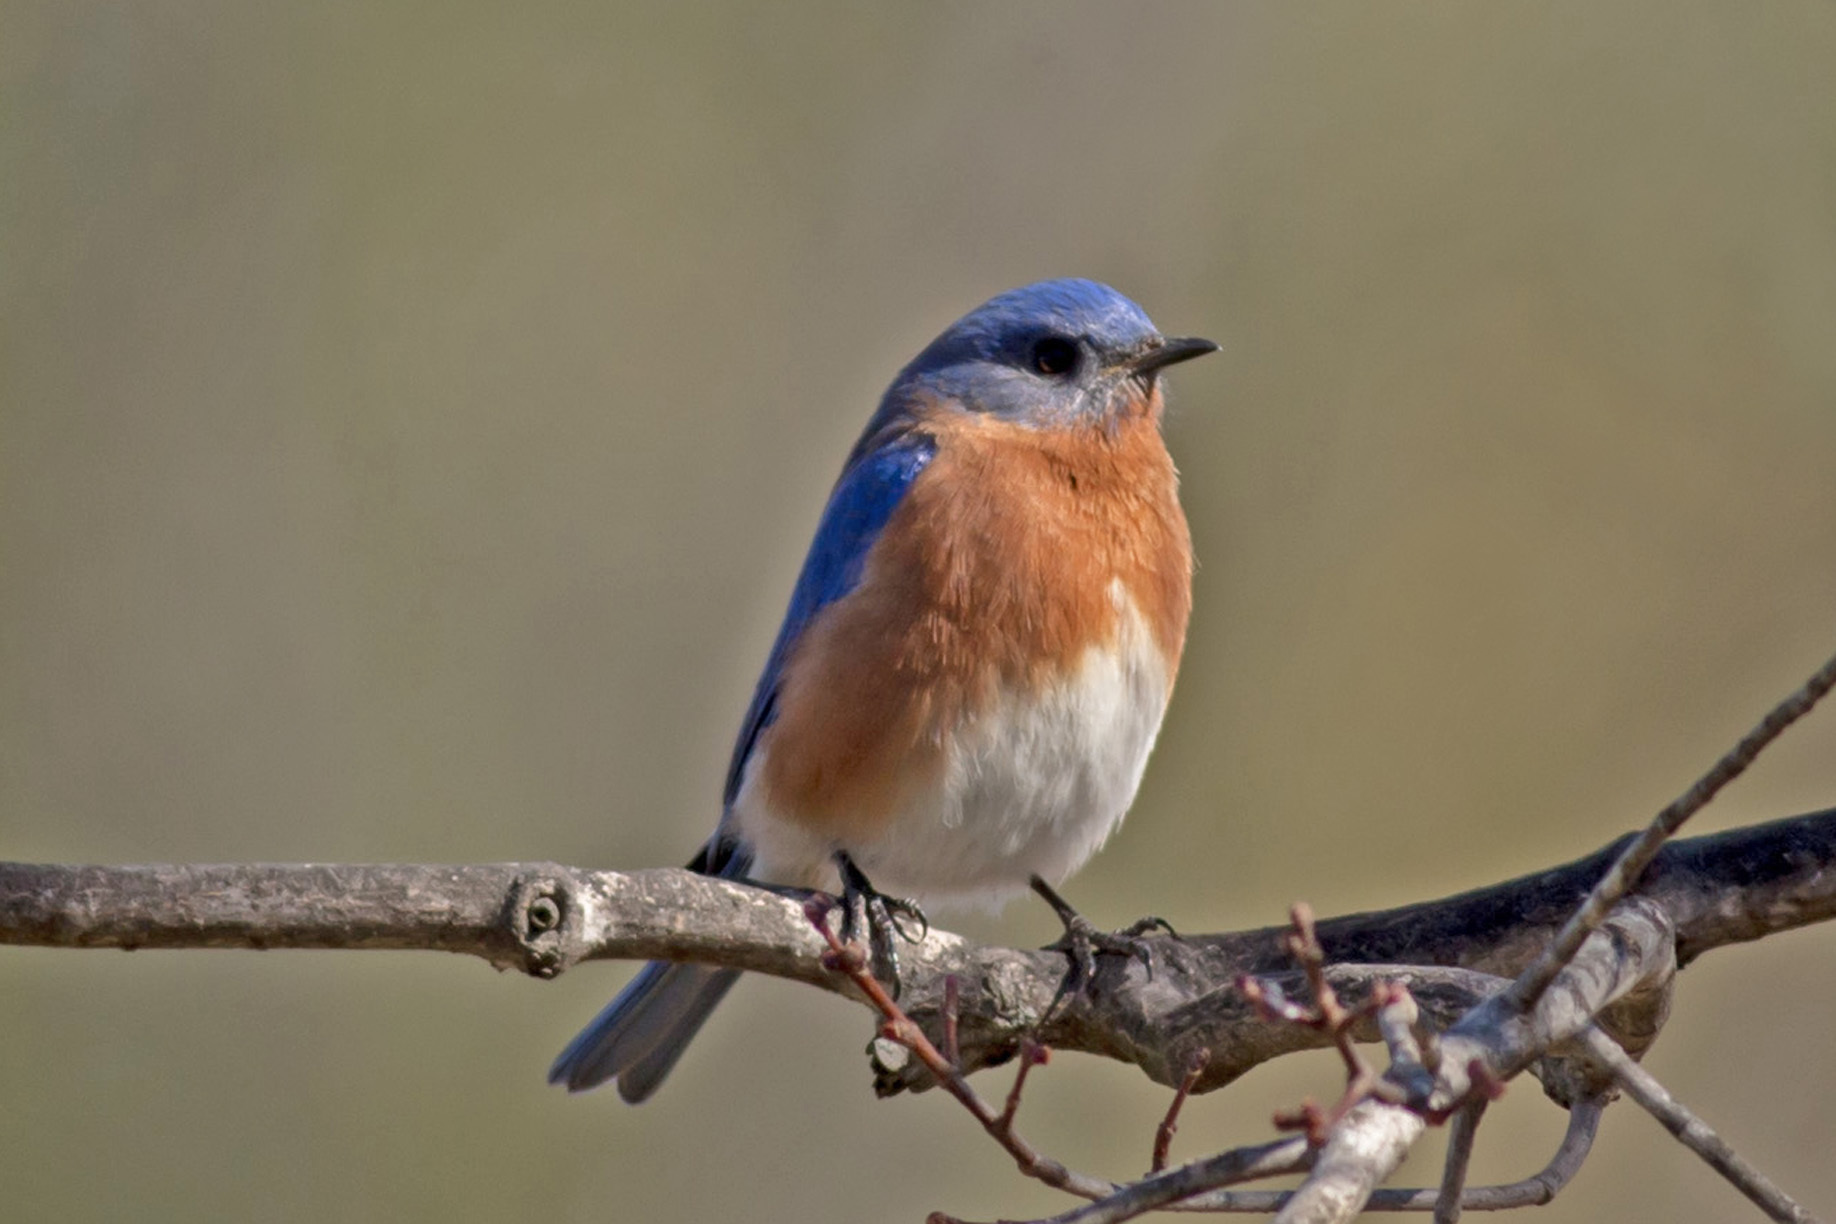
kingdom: Animalia
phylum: Chordata
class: Aves
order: Passeriformes
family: Turdidae
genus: Sialia
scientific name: Sialia sialis
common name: Eastern bluebird
